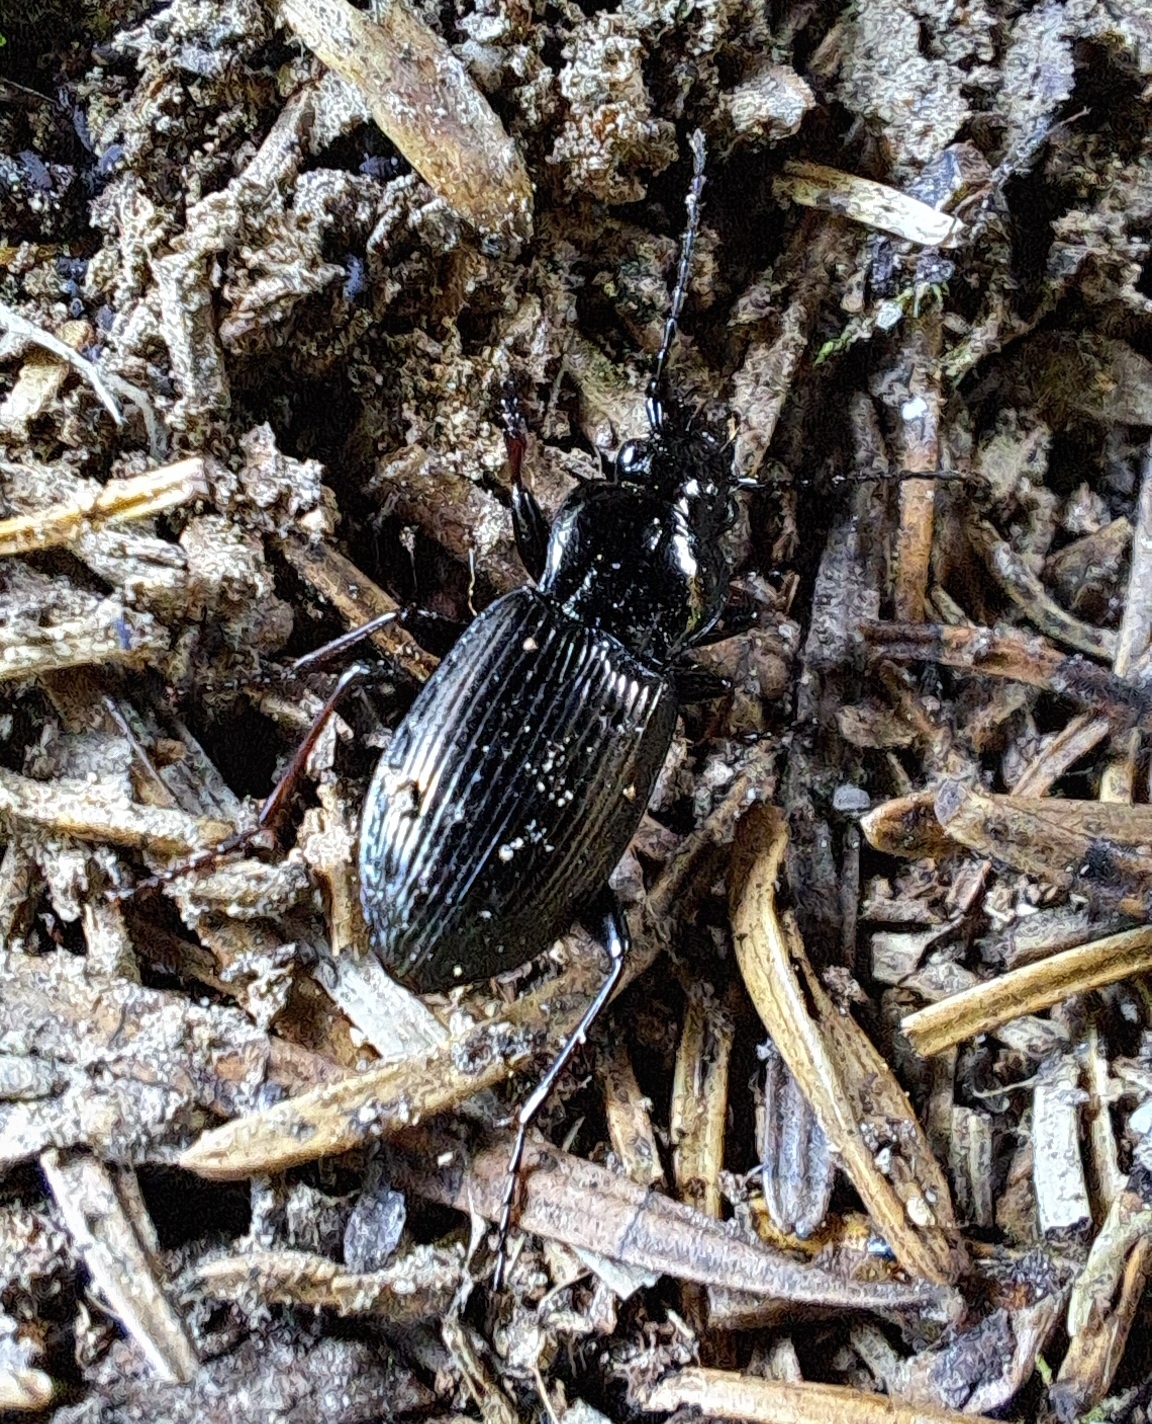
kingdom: Animalia
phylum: Arthropoda
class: Insecta
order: Coleoptera
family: Carabidae
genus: Pterostichus
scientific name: Pterostichus oblongopunctatus
